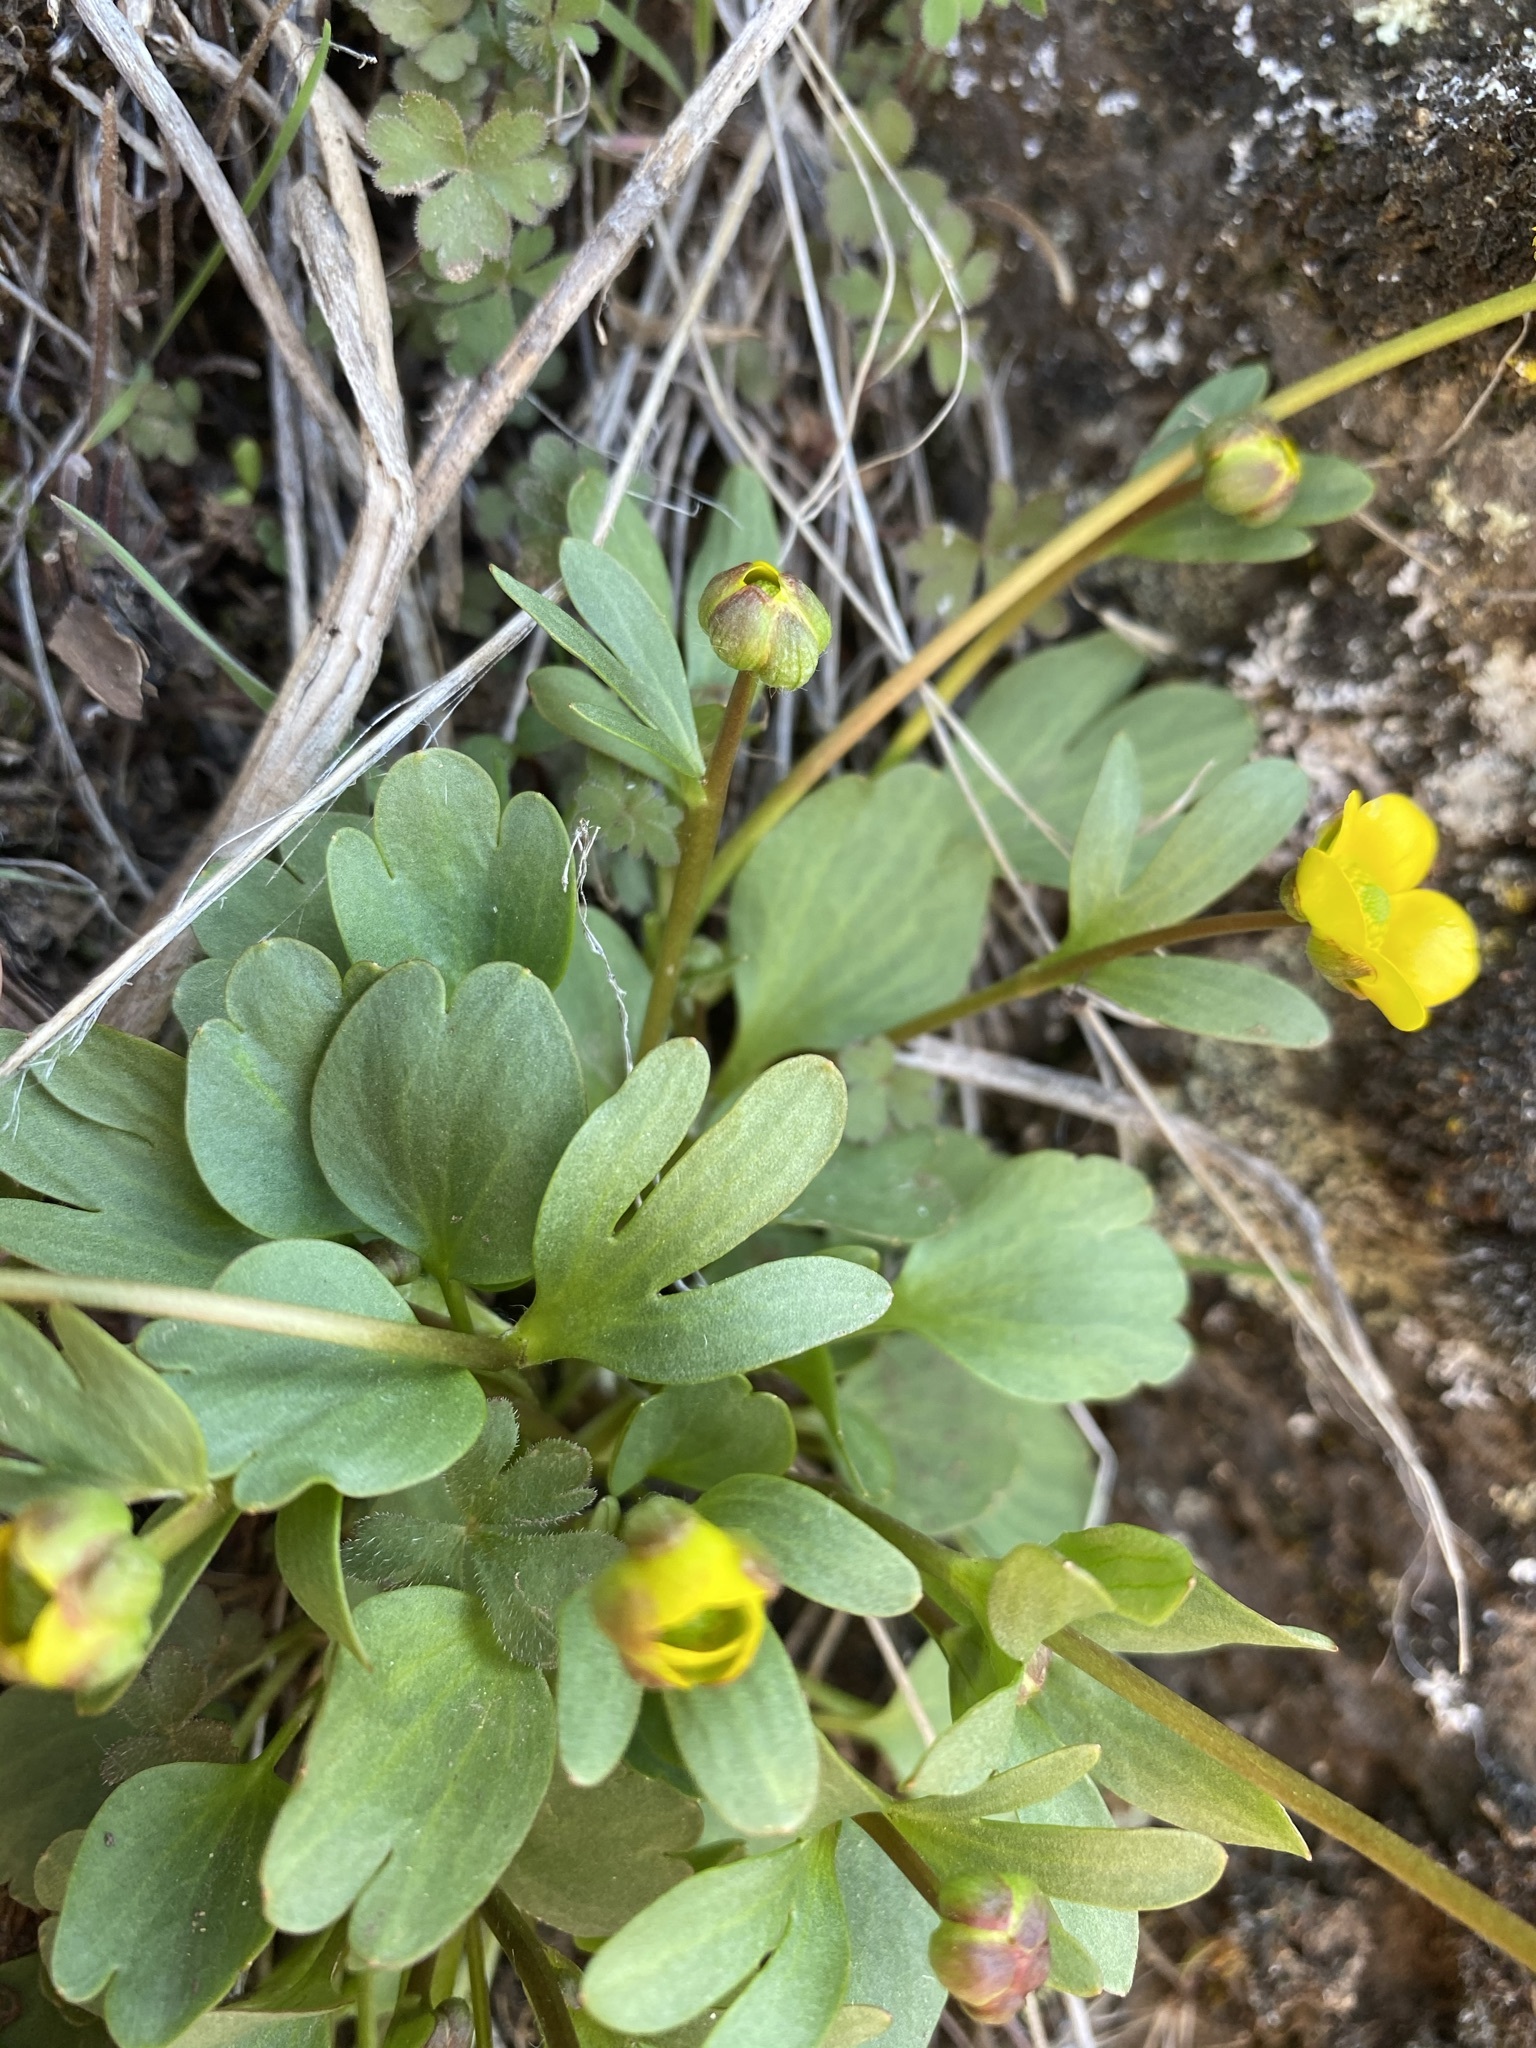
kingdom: Plantae
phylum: Tracheophyta
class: Magnoliopsida
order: Ranunculales
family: Ranunculaceae
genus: Ranunculus
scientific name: Ranunculus glaberrimus
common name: Sagebrush buttercup
